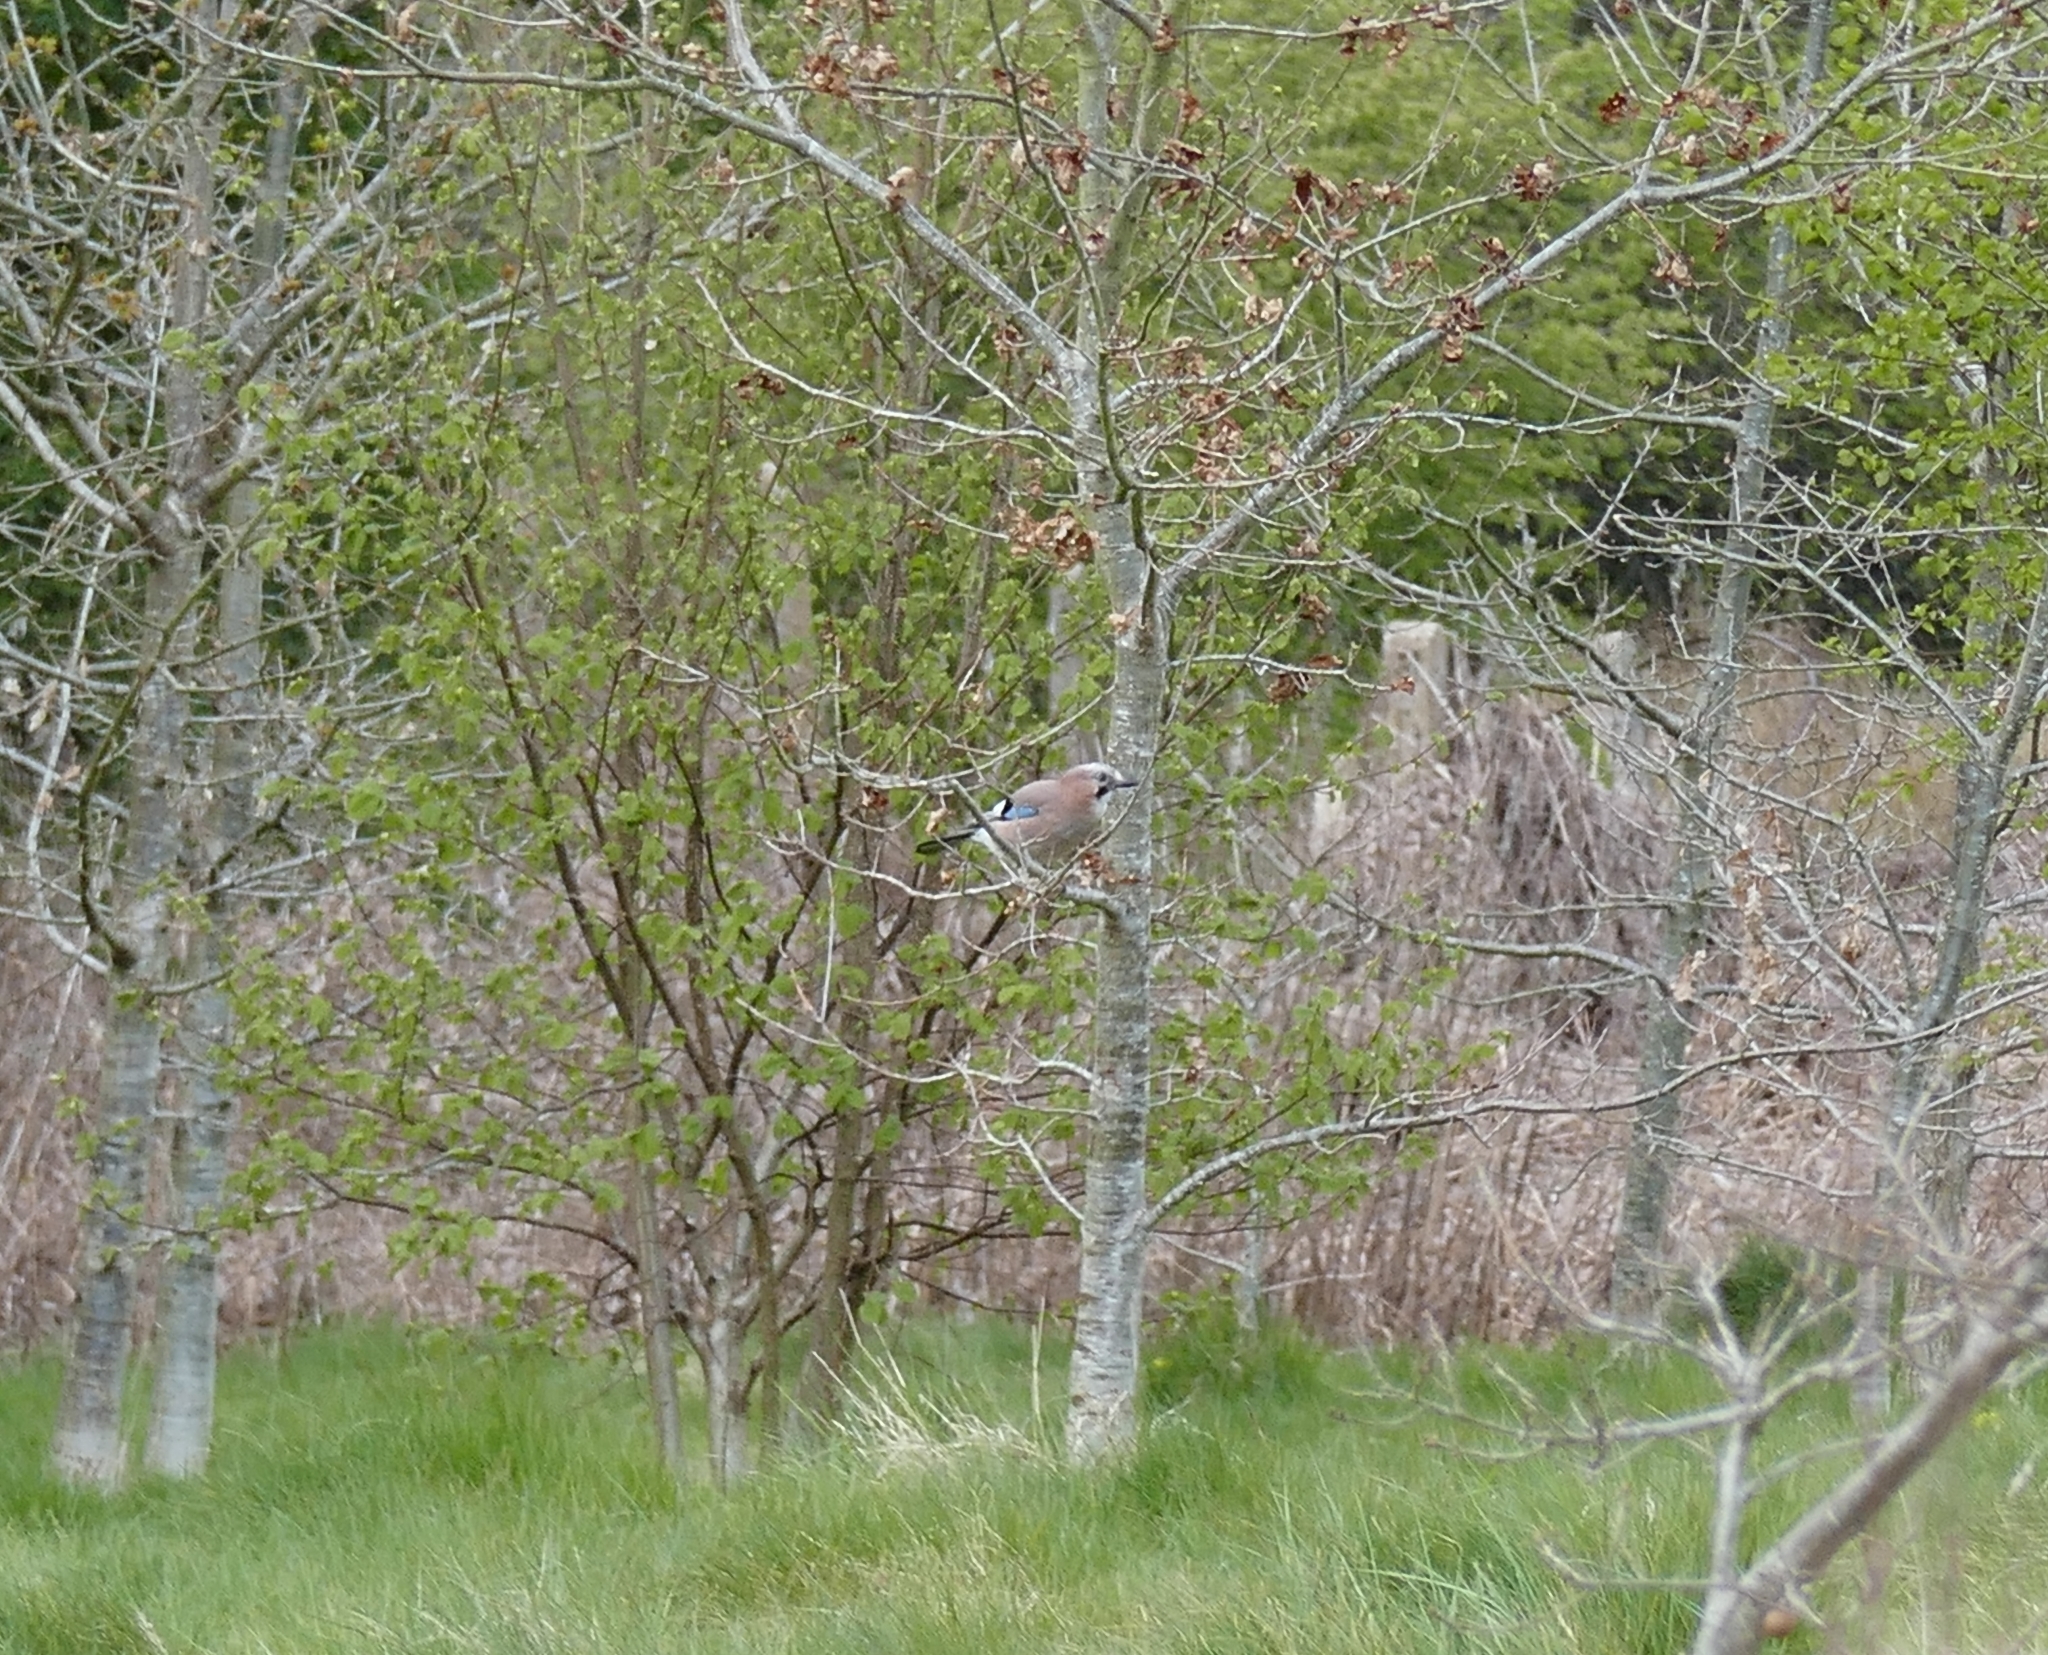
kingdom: Animalia
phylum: Chordata
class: Aves
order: Passeriformes
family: Corvidae
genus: Garrulus
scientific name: Garrulus glandarius
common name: Eurasian jay
